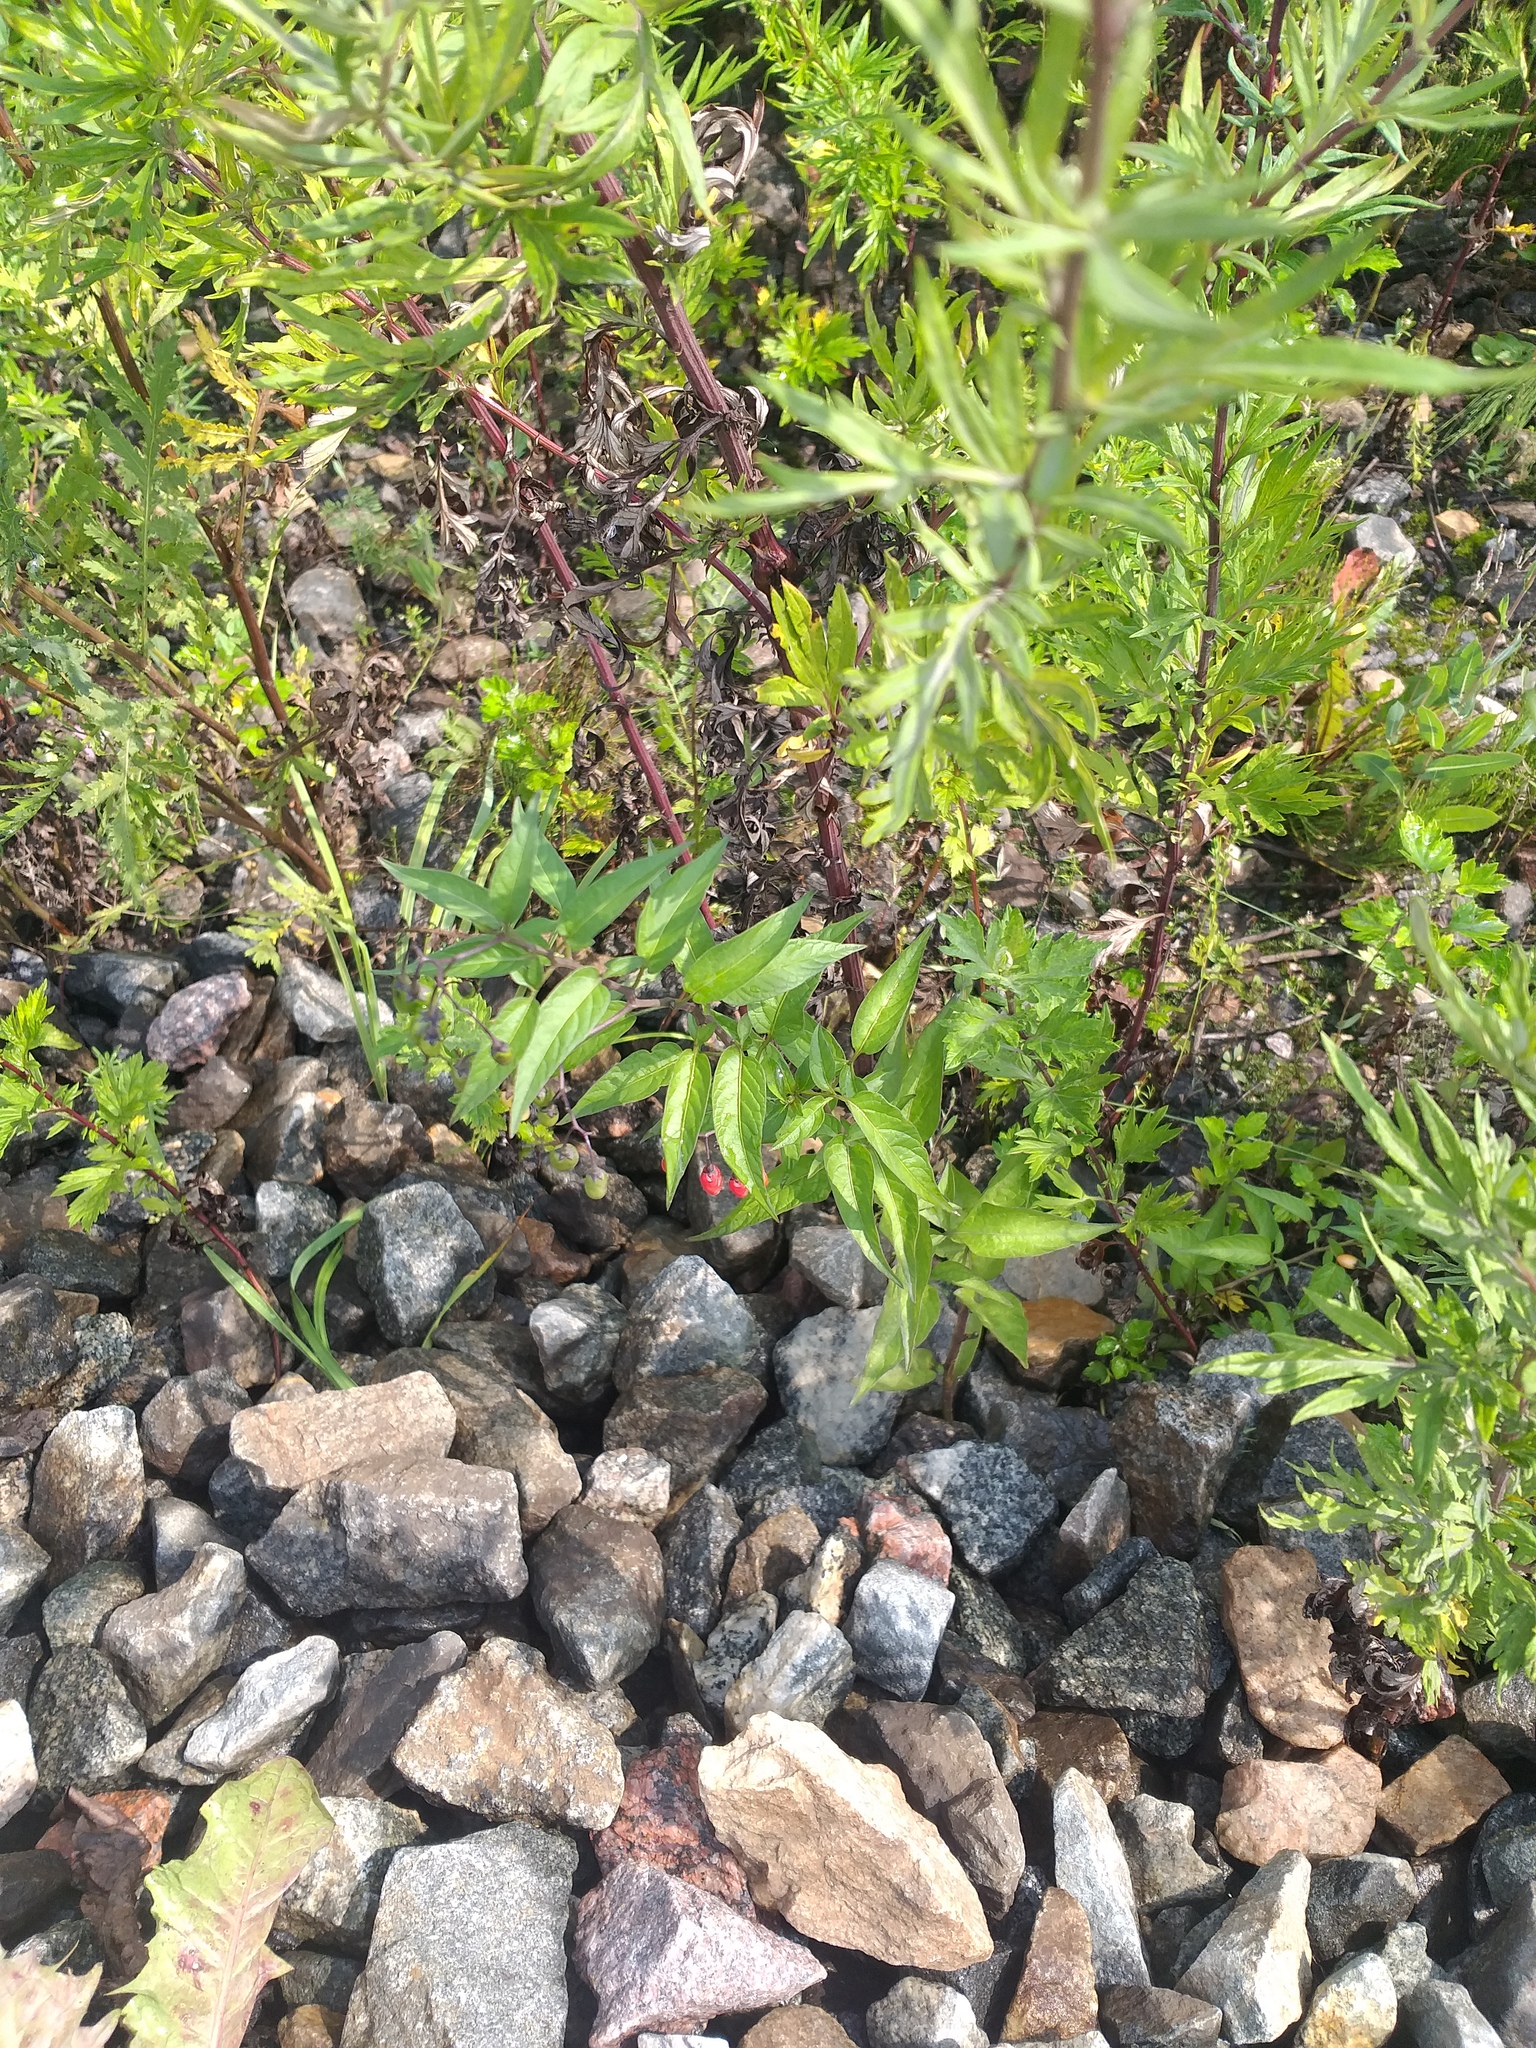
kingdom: Plantae
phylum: Tracheophyta
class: Magnoliopsida
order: Solanales
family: Solanaceae
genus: Solanum
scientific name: Solanum dulcamara
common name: Climbing nightshade
